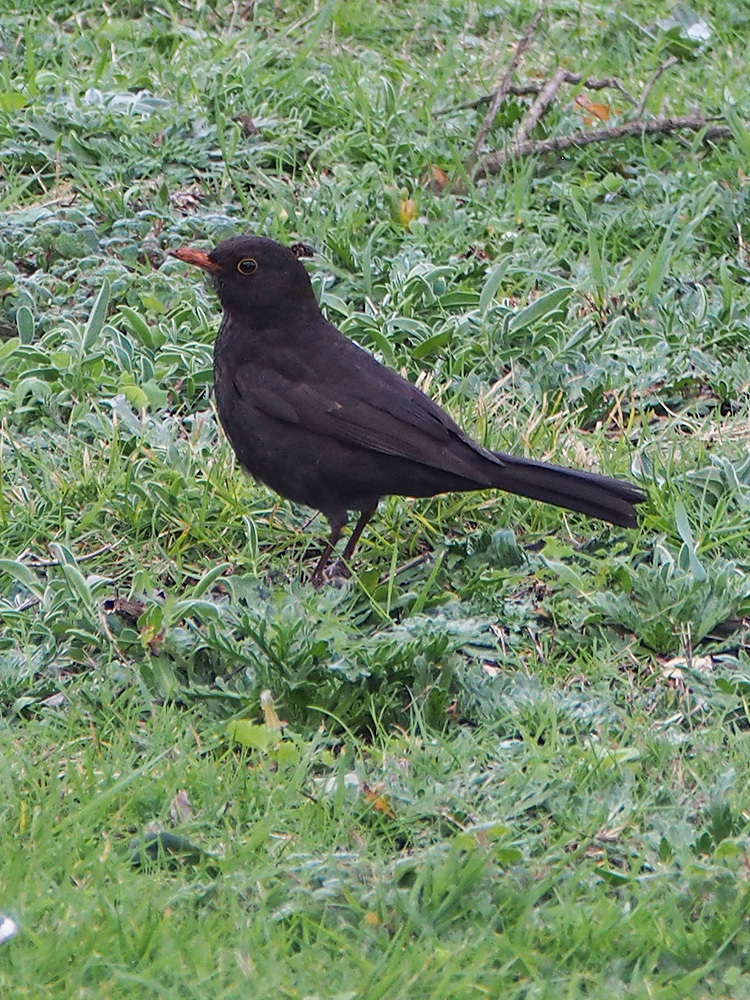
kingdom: Animalia
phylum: Chordata
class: Aves
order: Passeriformes
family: Turdidae
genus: Turdus
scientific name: Turdus merula
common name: Common blackbird
